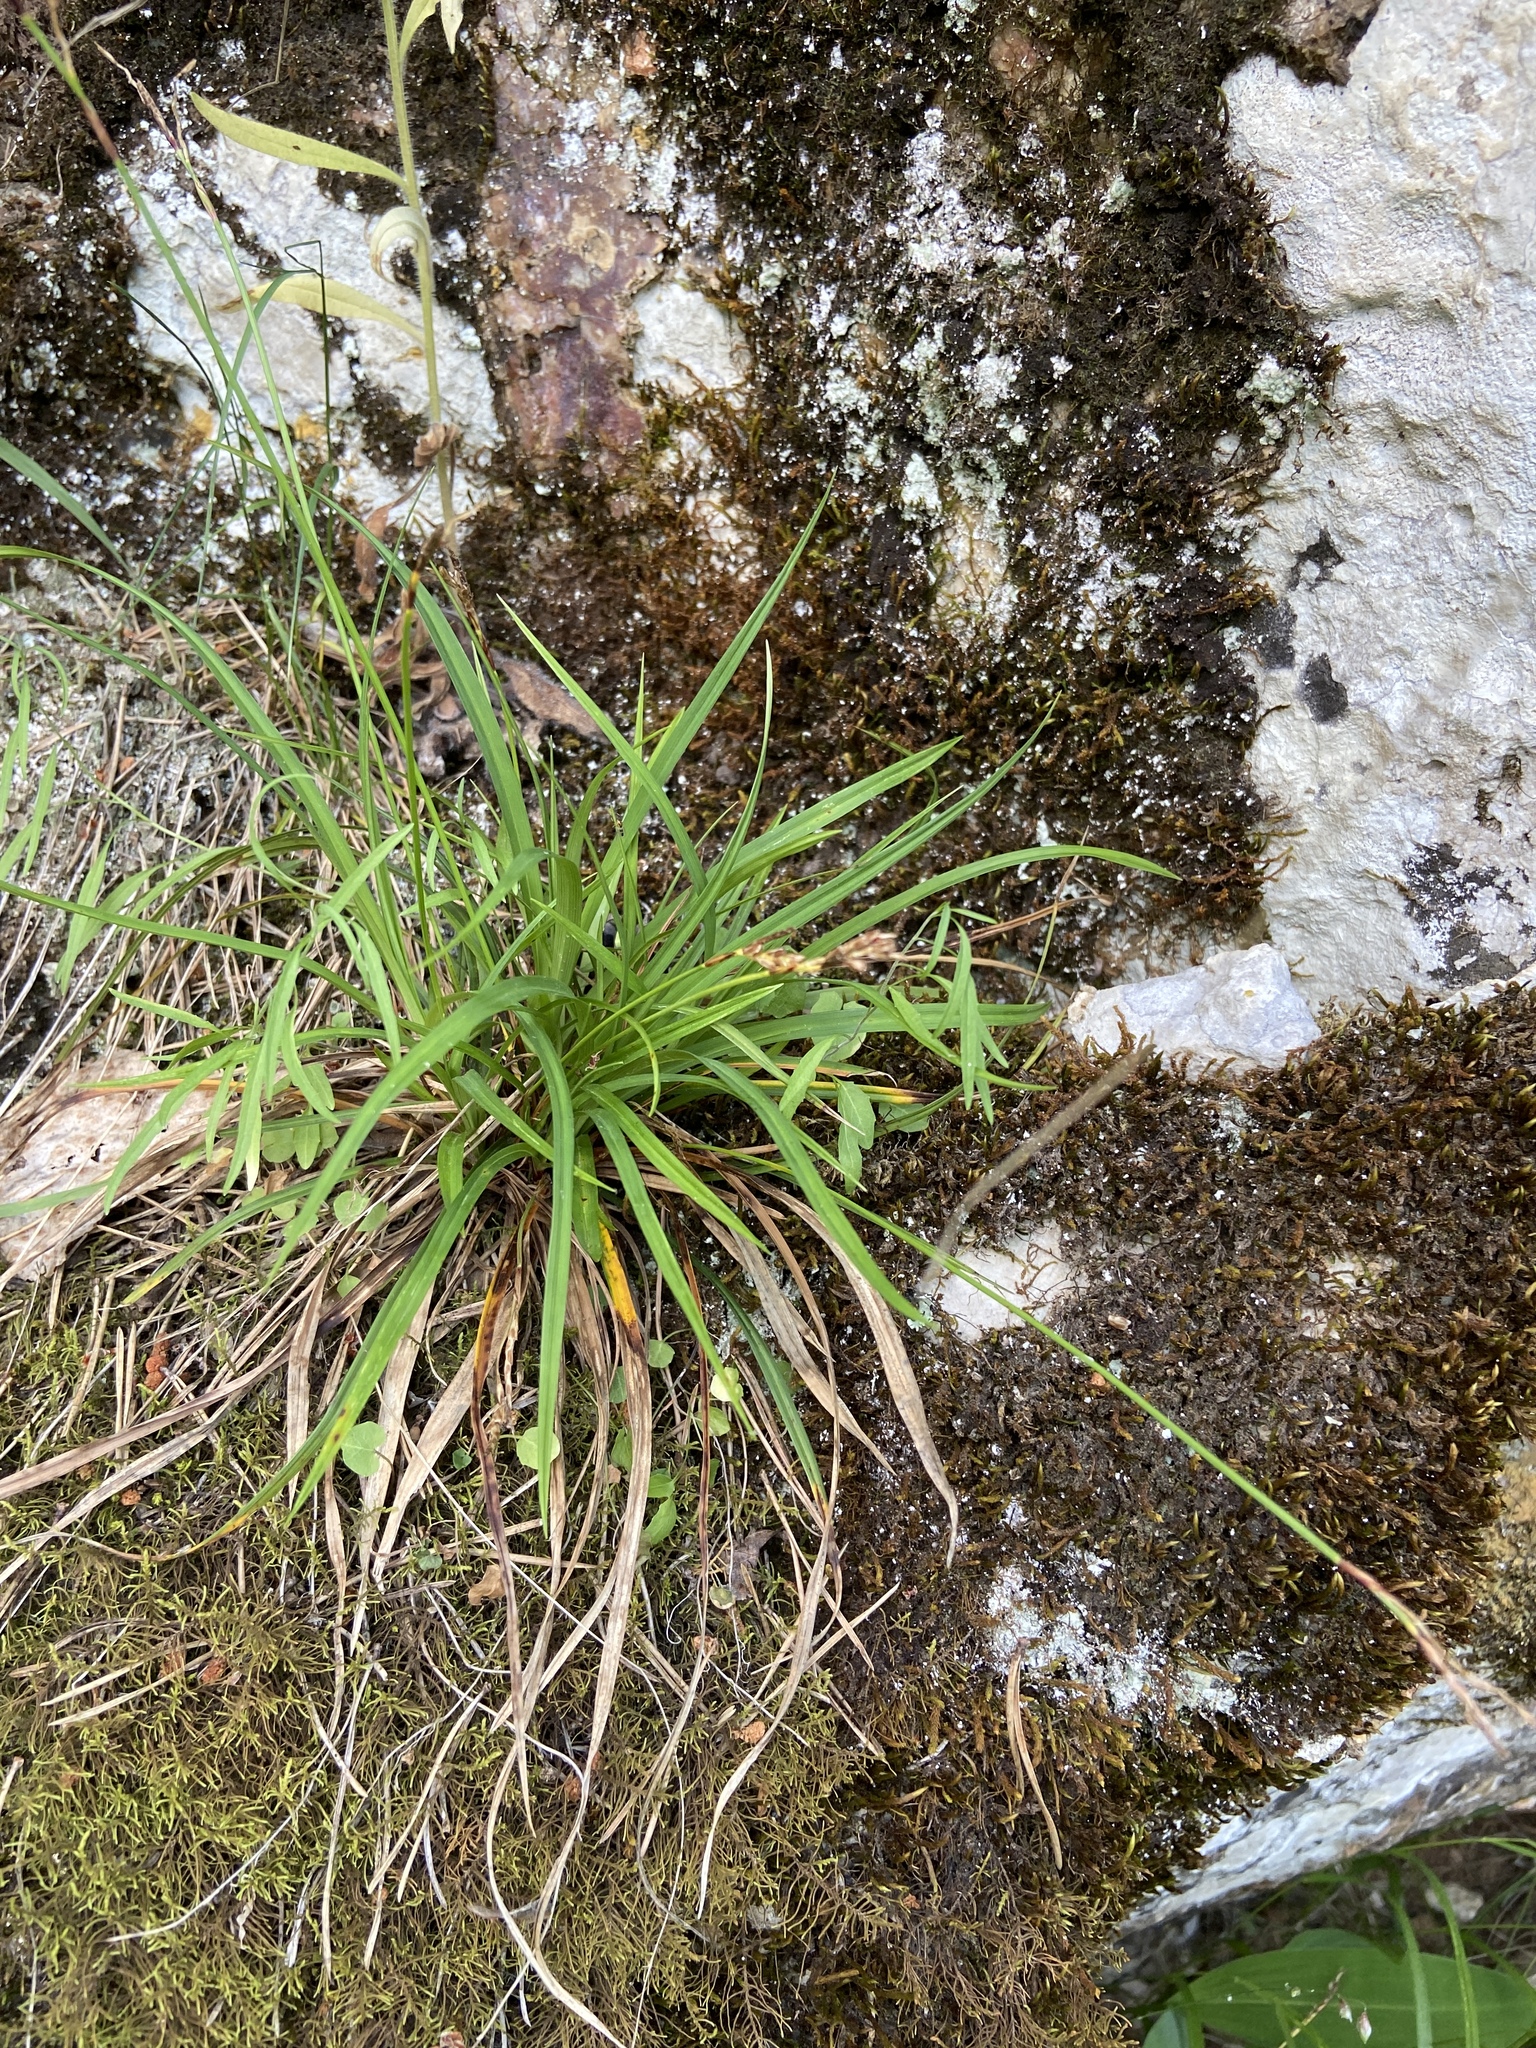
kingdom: Plantae
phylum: Tracheophyta
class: Liliopsida
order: Poales
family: Cyperaceae
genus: Carex
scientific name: Carex digitata
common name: Fingered sedge
